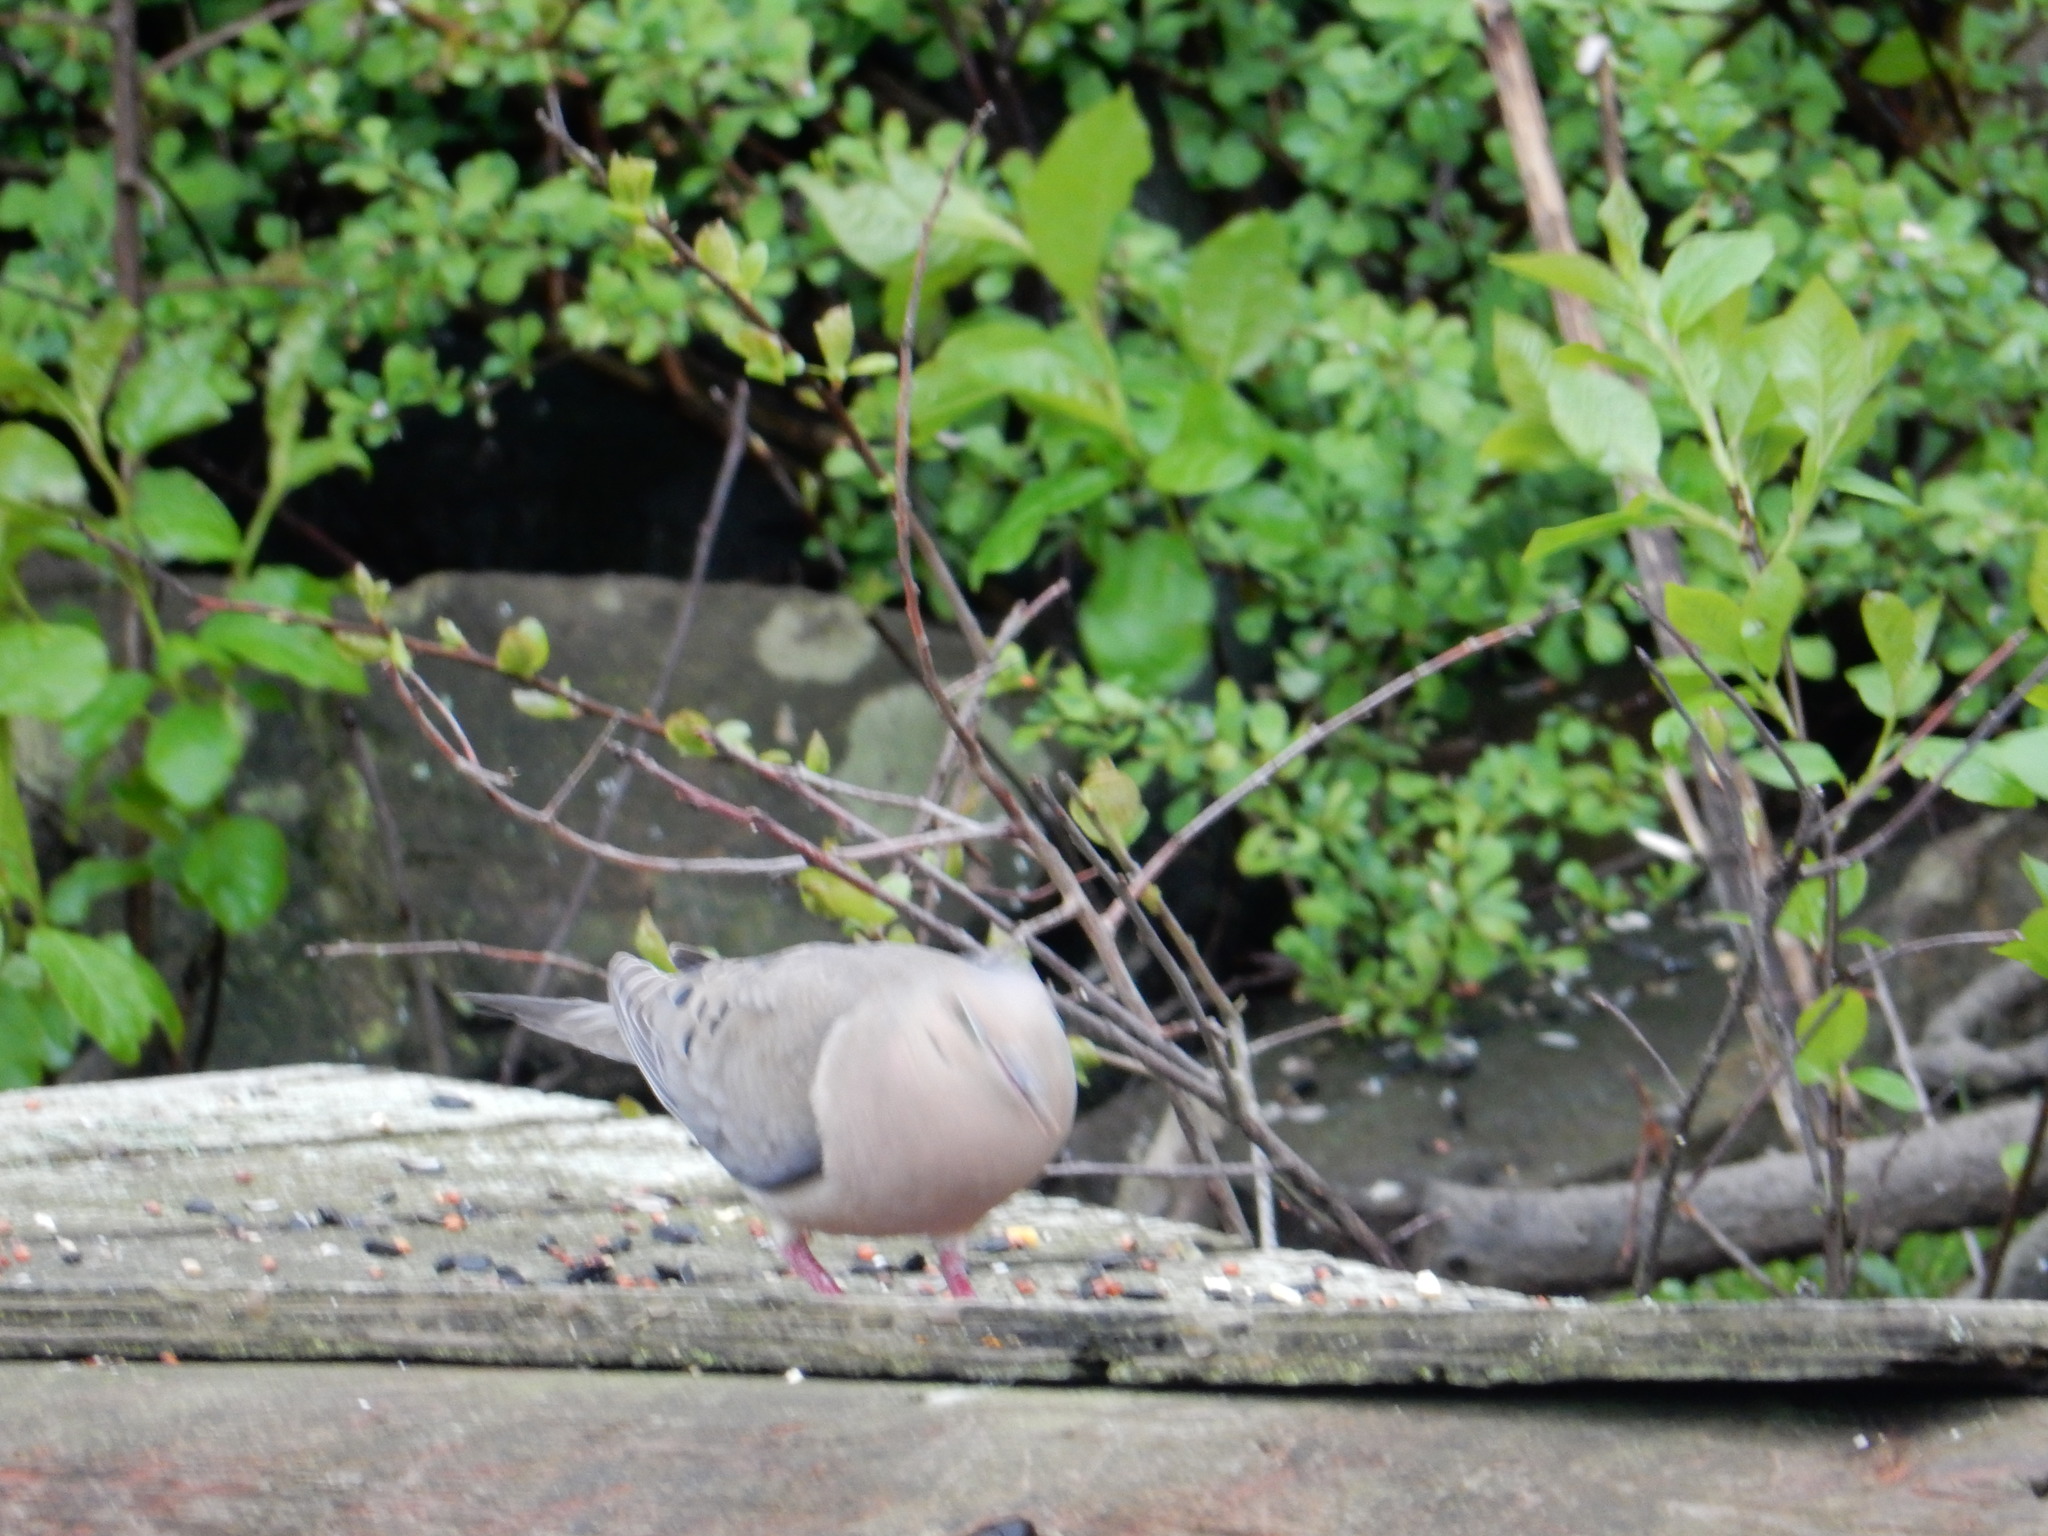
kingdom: Animalia
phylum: Chordata
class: Aves
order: Columbiformes
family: Columbidae
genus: Zenaida
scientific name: Zenaida macroura
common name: Mourning dove
